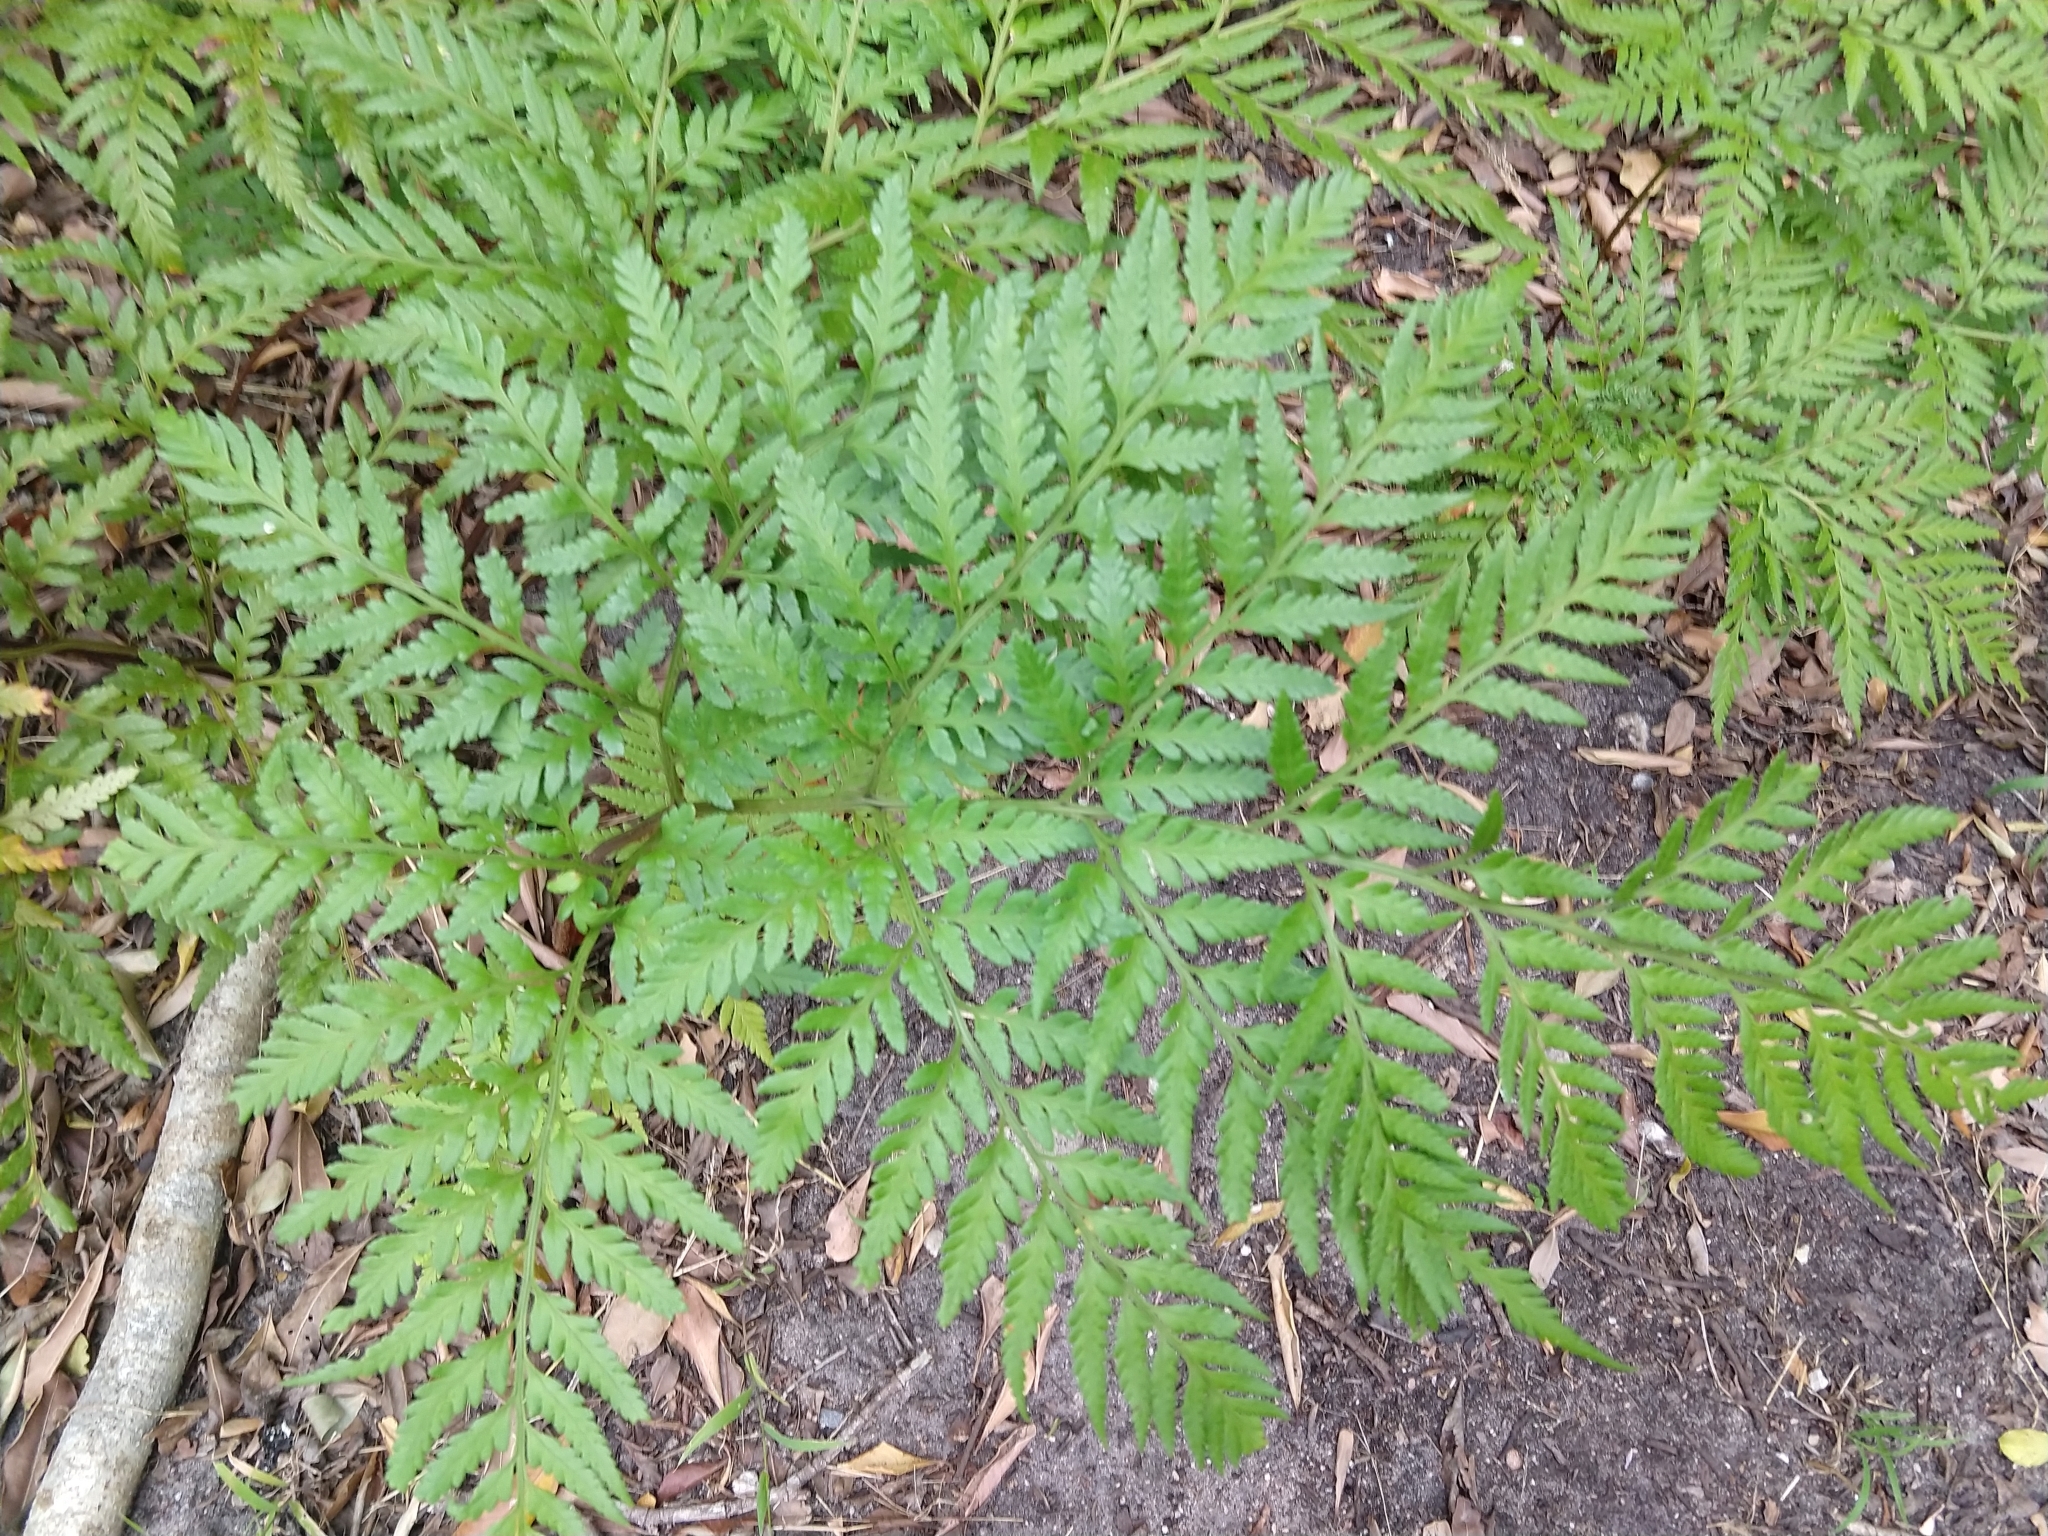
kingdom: Plantae
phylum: Tracheophyta
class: Polypodiopsida
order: Polypodiales
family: Dryopteridaceae
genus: Rumohra
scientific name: Rumohra adiantiformis
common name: Leather fern
